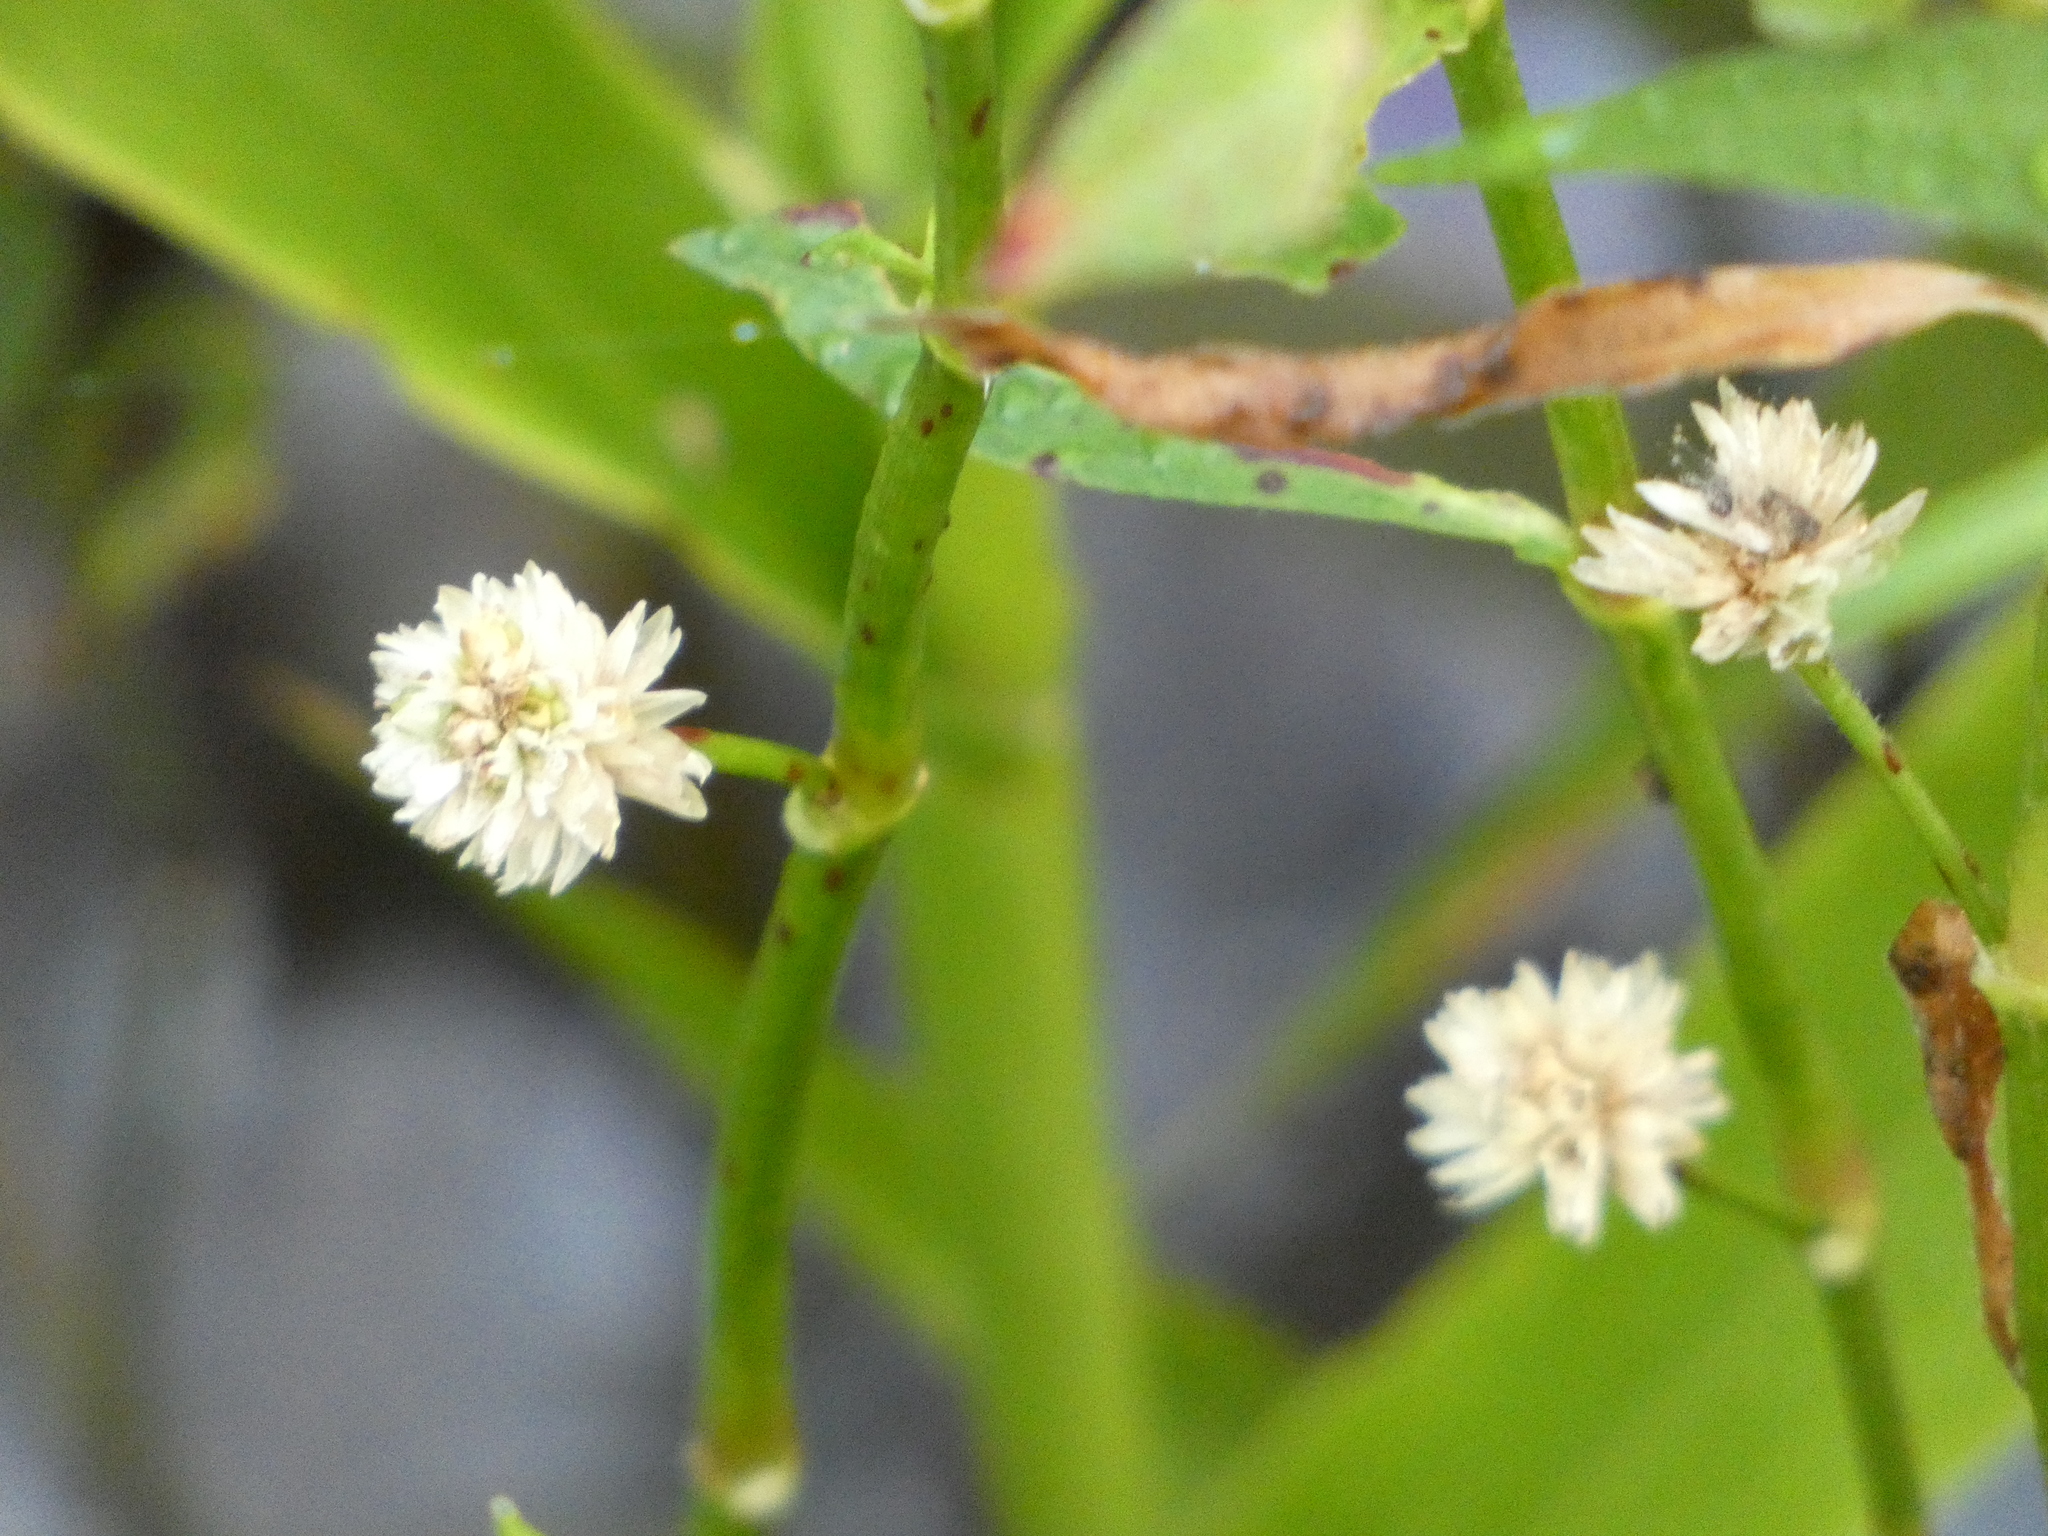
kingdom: Plantae
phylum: Tracheophyta
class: Magnoliopsida
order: Caryophyllales
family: Amaranthaceae
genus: Alternanthera
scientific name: Alternanthera philoxeroides
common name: Alligatorweed
